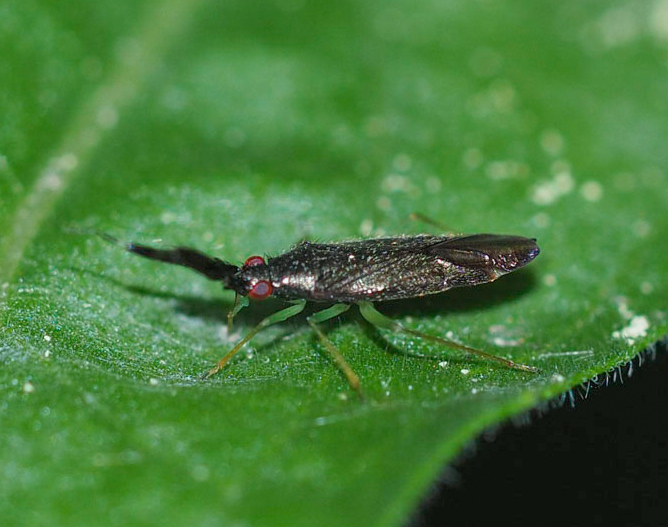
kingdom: Animalia
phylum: Arthropoda
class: Insecta
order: Hemiptera
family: Miridae
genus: Heterotoma
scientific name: Heterotoma planicornis
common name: Plant bug
